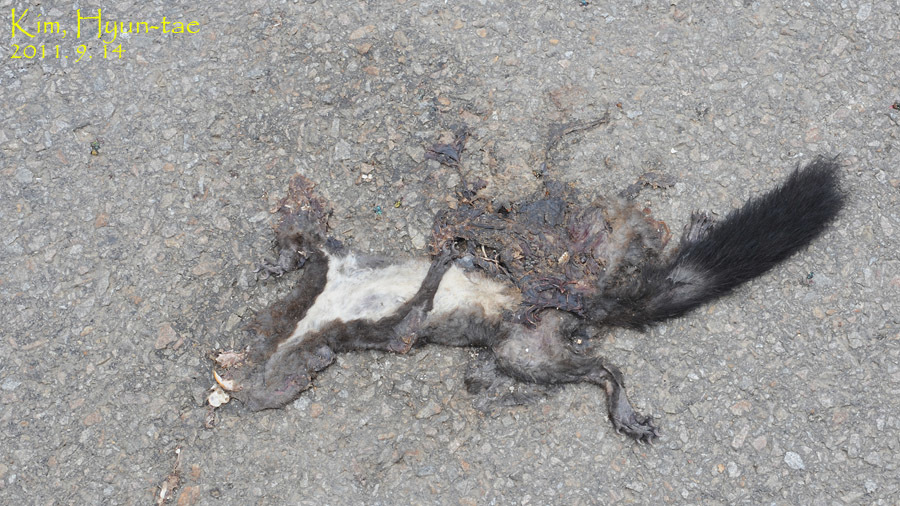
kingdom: Animalia
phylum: Chordata
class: Mammalia
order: Rodentia
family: Sciuridae
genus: Sciurus
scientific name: Sciurus vulgaris
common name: Eurasian red squirrel
